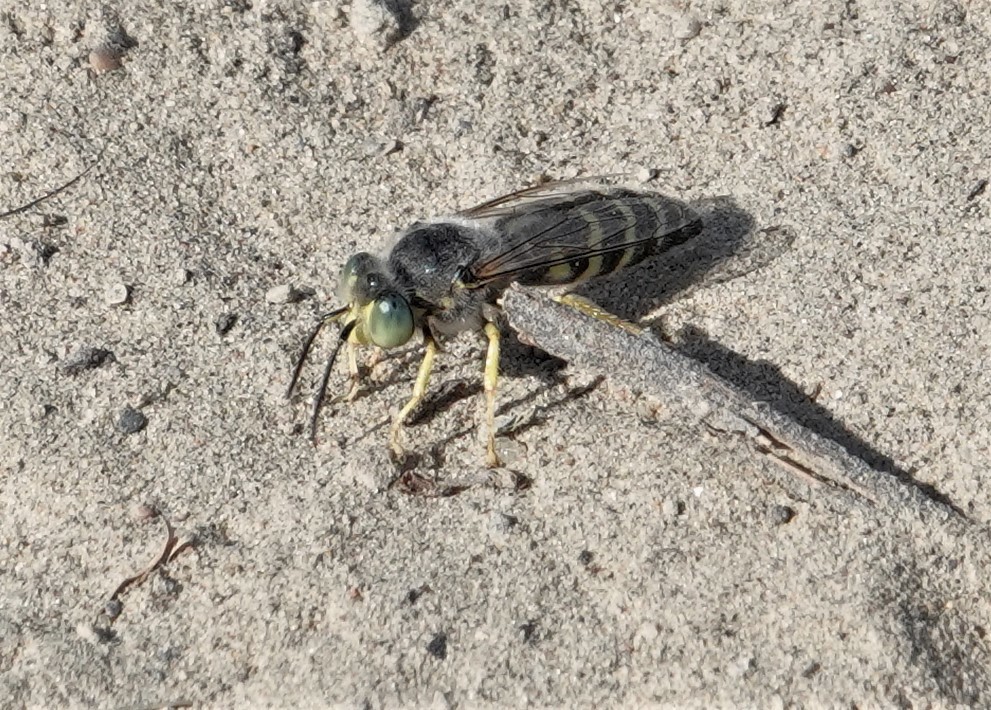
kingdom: Animalia
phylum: Arthropoda
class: Insecta
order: Hymenoptera
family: Crabronidae
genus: Bembix
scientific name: Bembix americana
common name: American sand wasp
